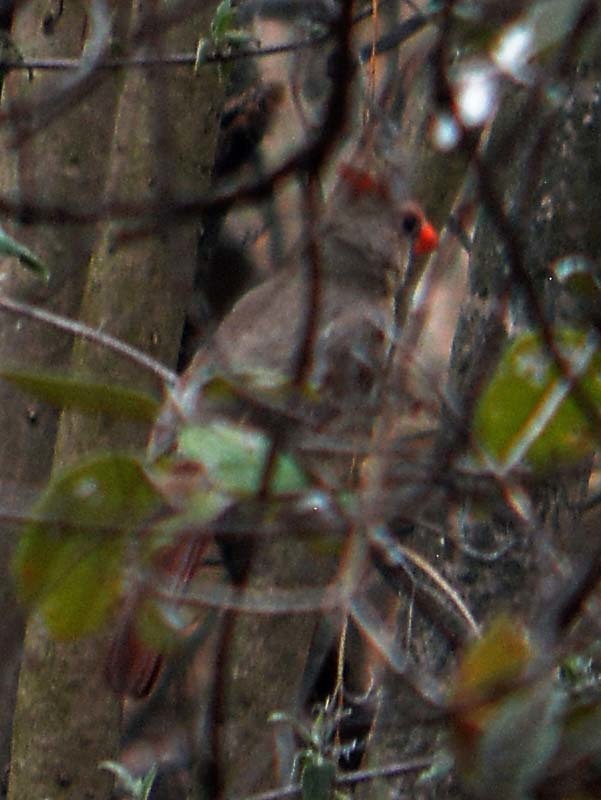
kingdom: Animalia
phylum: Chordata
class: Aves
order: Passeriformes
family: Cardinalidae
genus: Cardinalis
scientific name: Cardinalis cardinalis
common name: Northern cardinal
